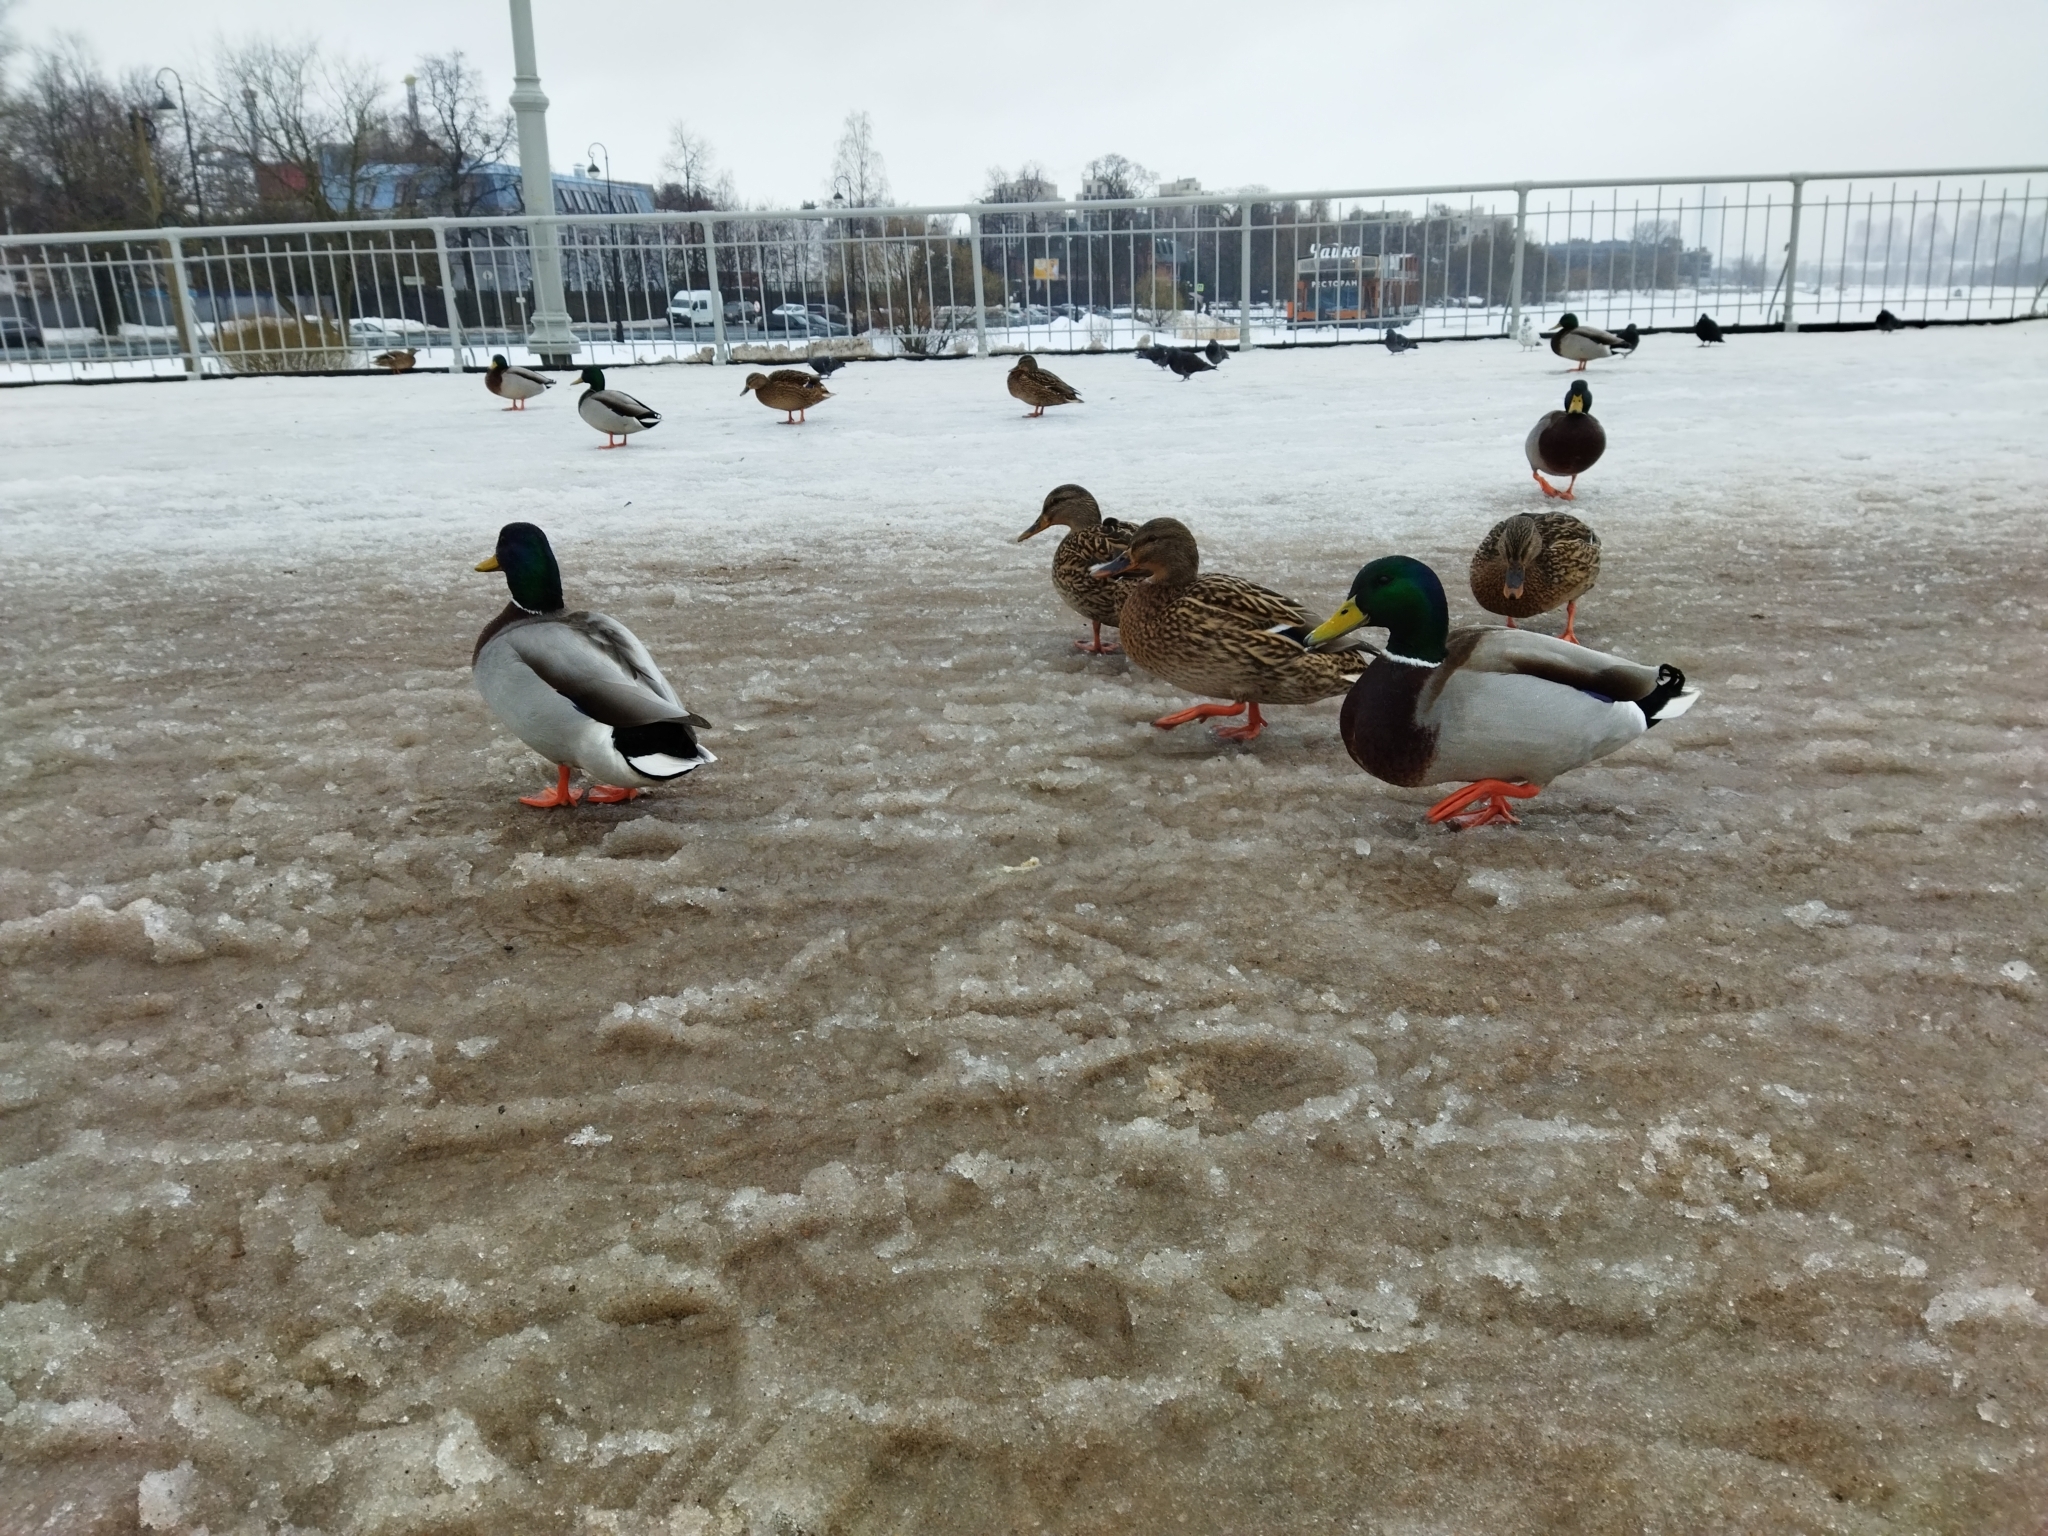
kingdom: Animalia
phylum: Chordata
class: Aves
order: Anseriformes
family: Anatidae
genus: Anas
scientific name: Anas platyrhynchos
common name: Mallard
